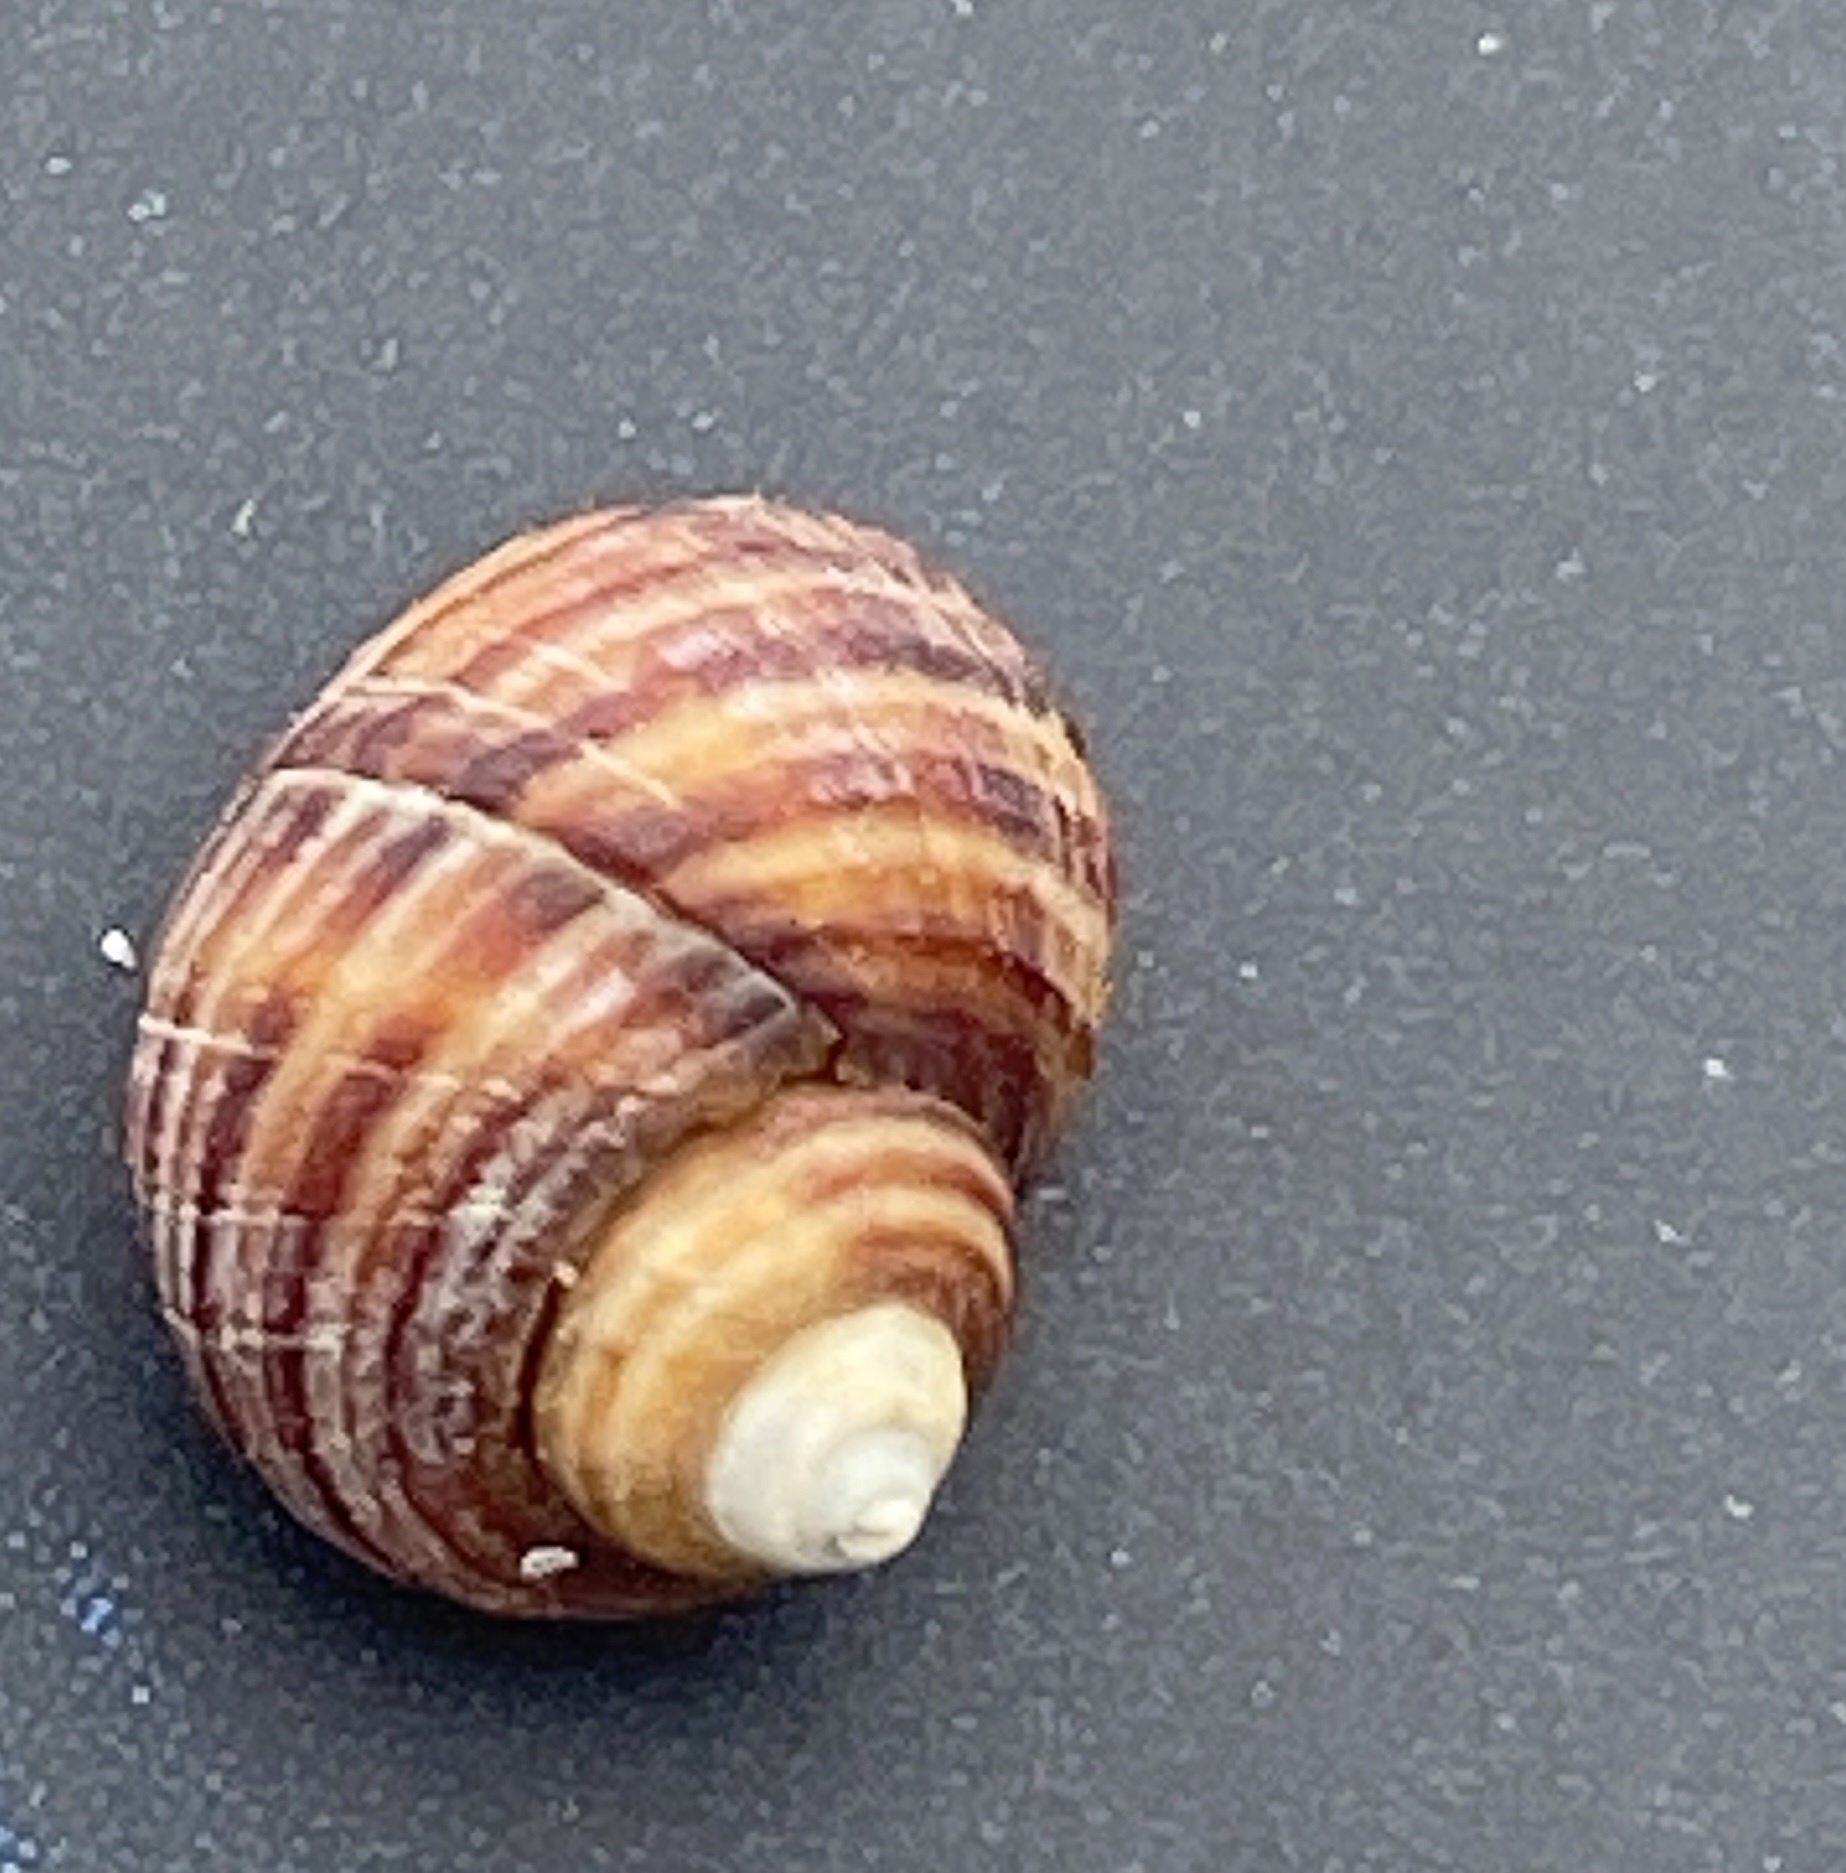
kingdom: Animalia
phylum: Mollusca
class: Gastropoda
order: Littorinimorpha
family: Littorinidae
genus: Littorina
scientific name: Littorina littorea
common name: Common periwinkle
